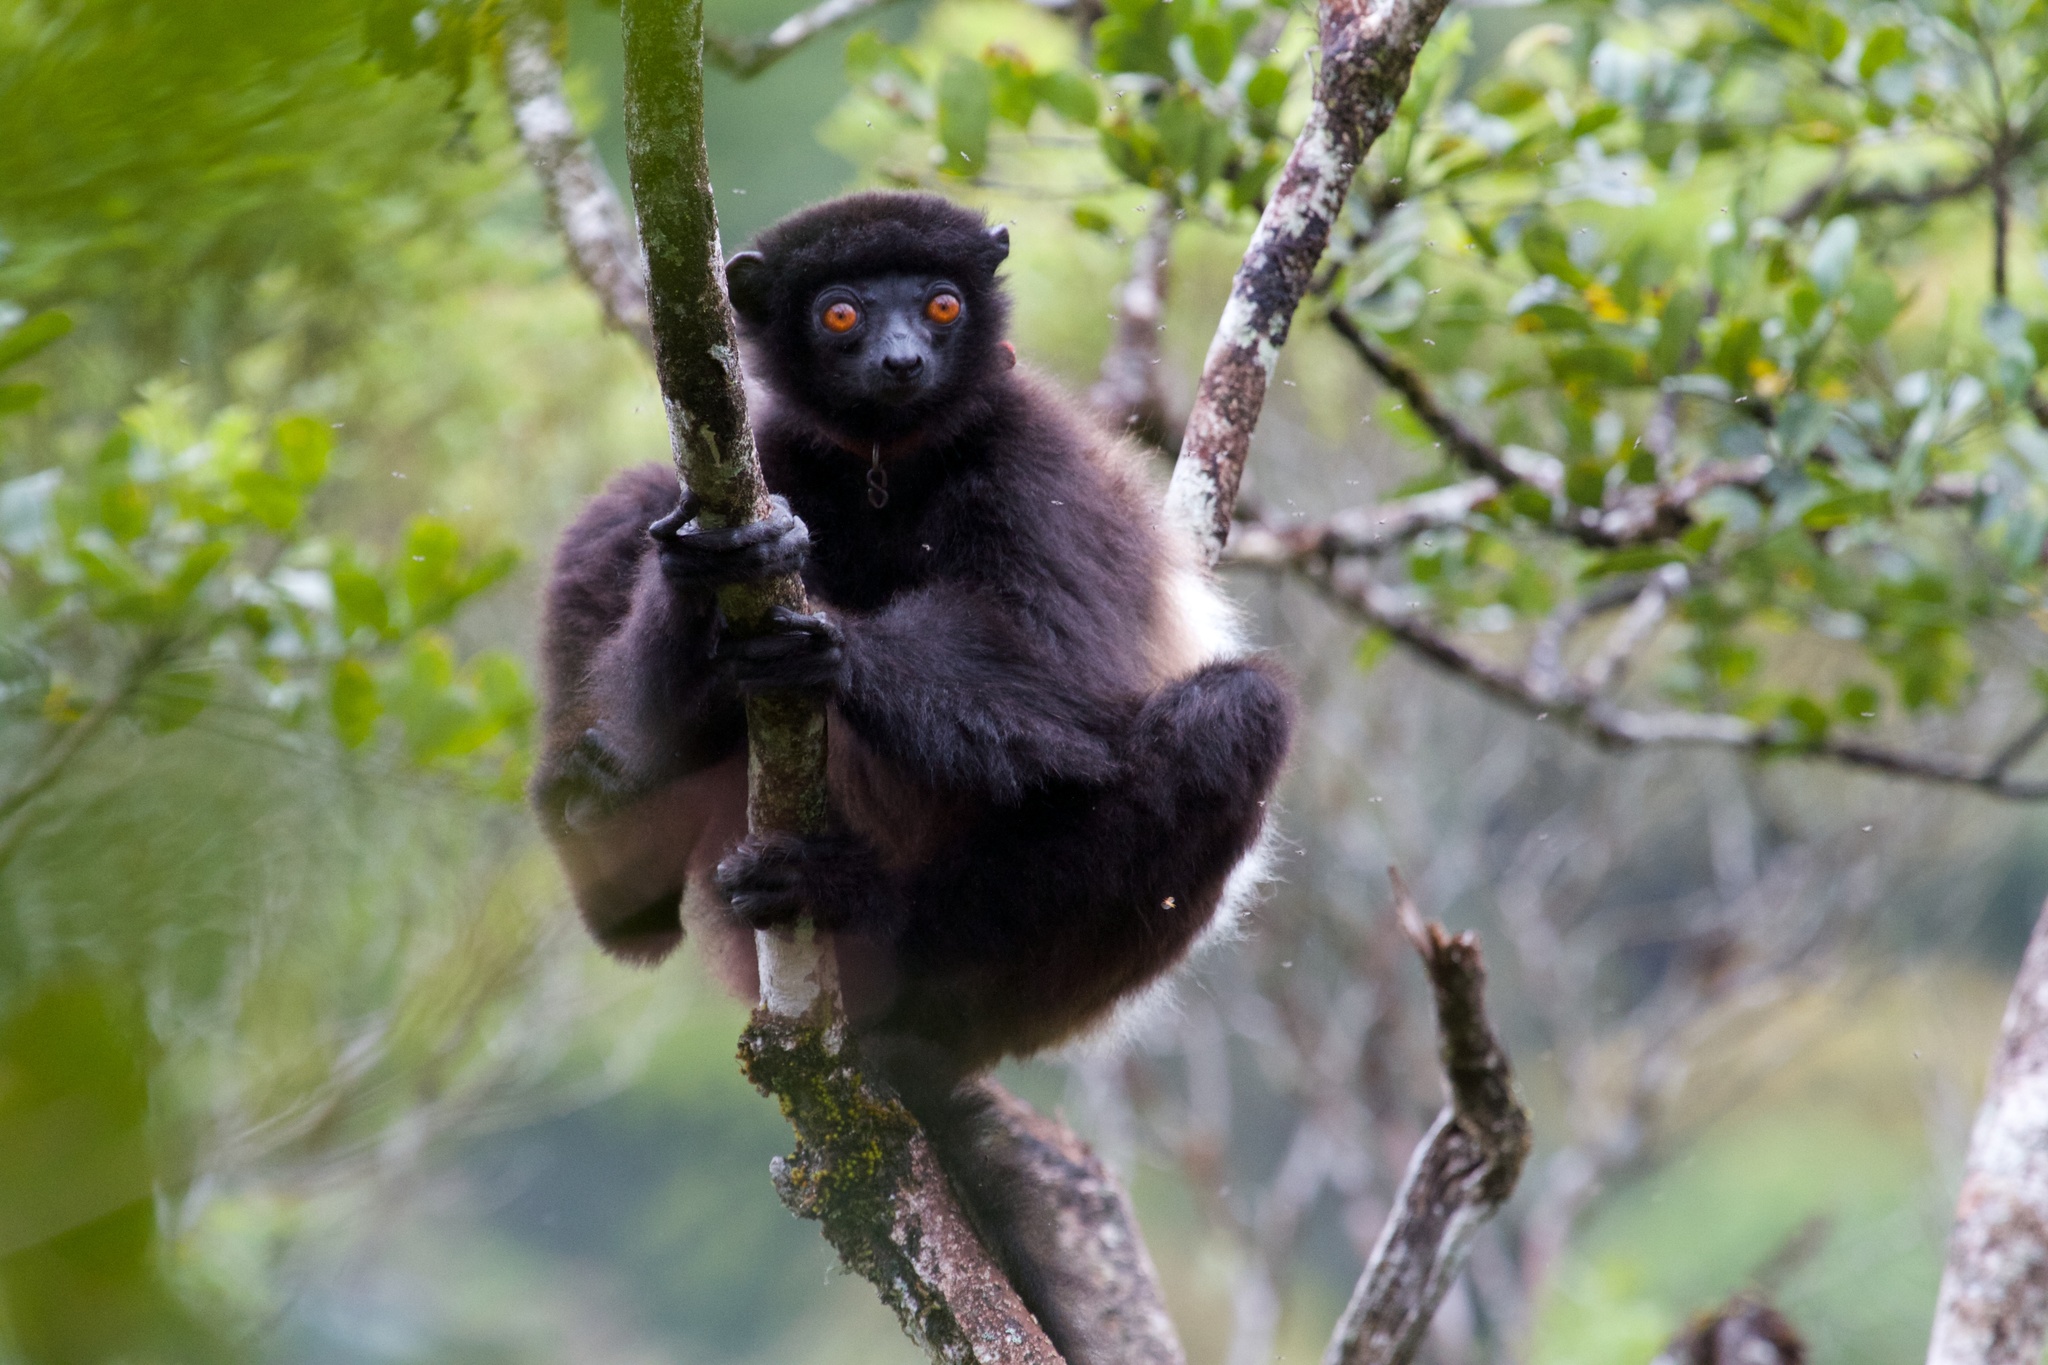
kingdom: Animalia
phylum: Chordata
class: Mammalia
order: Primates
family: Indriidae
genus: Propithecus
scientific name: Propithecus edwardsi
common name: Milne-edwards’s simpona
